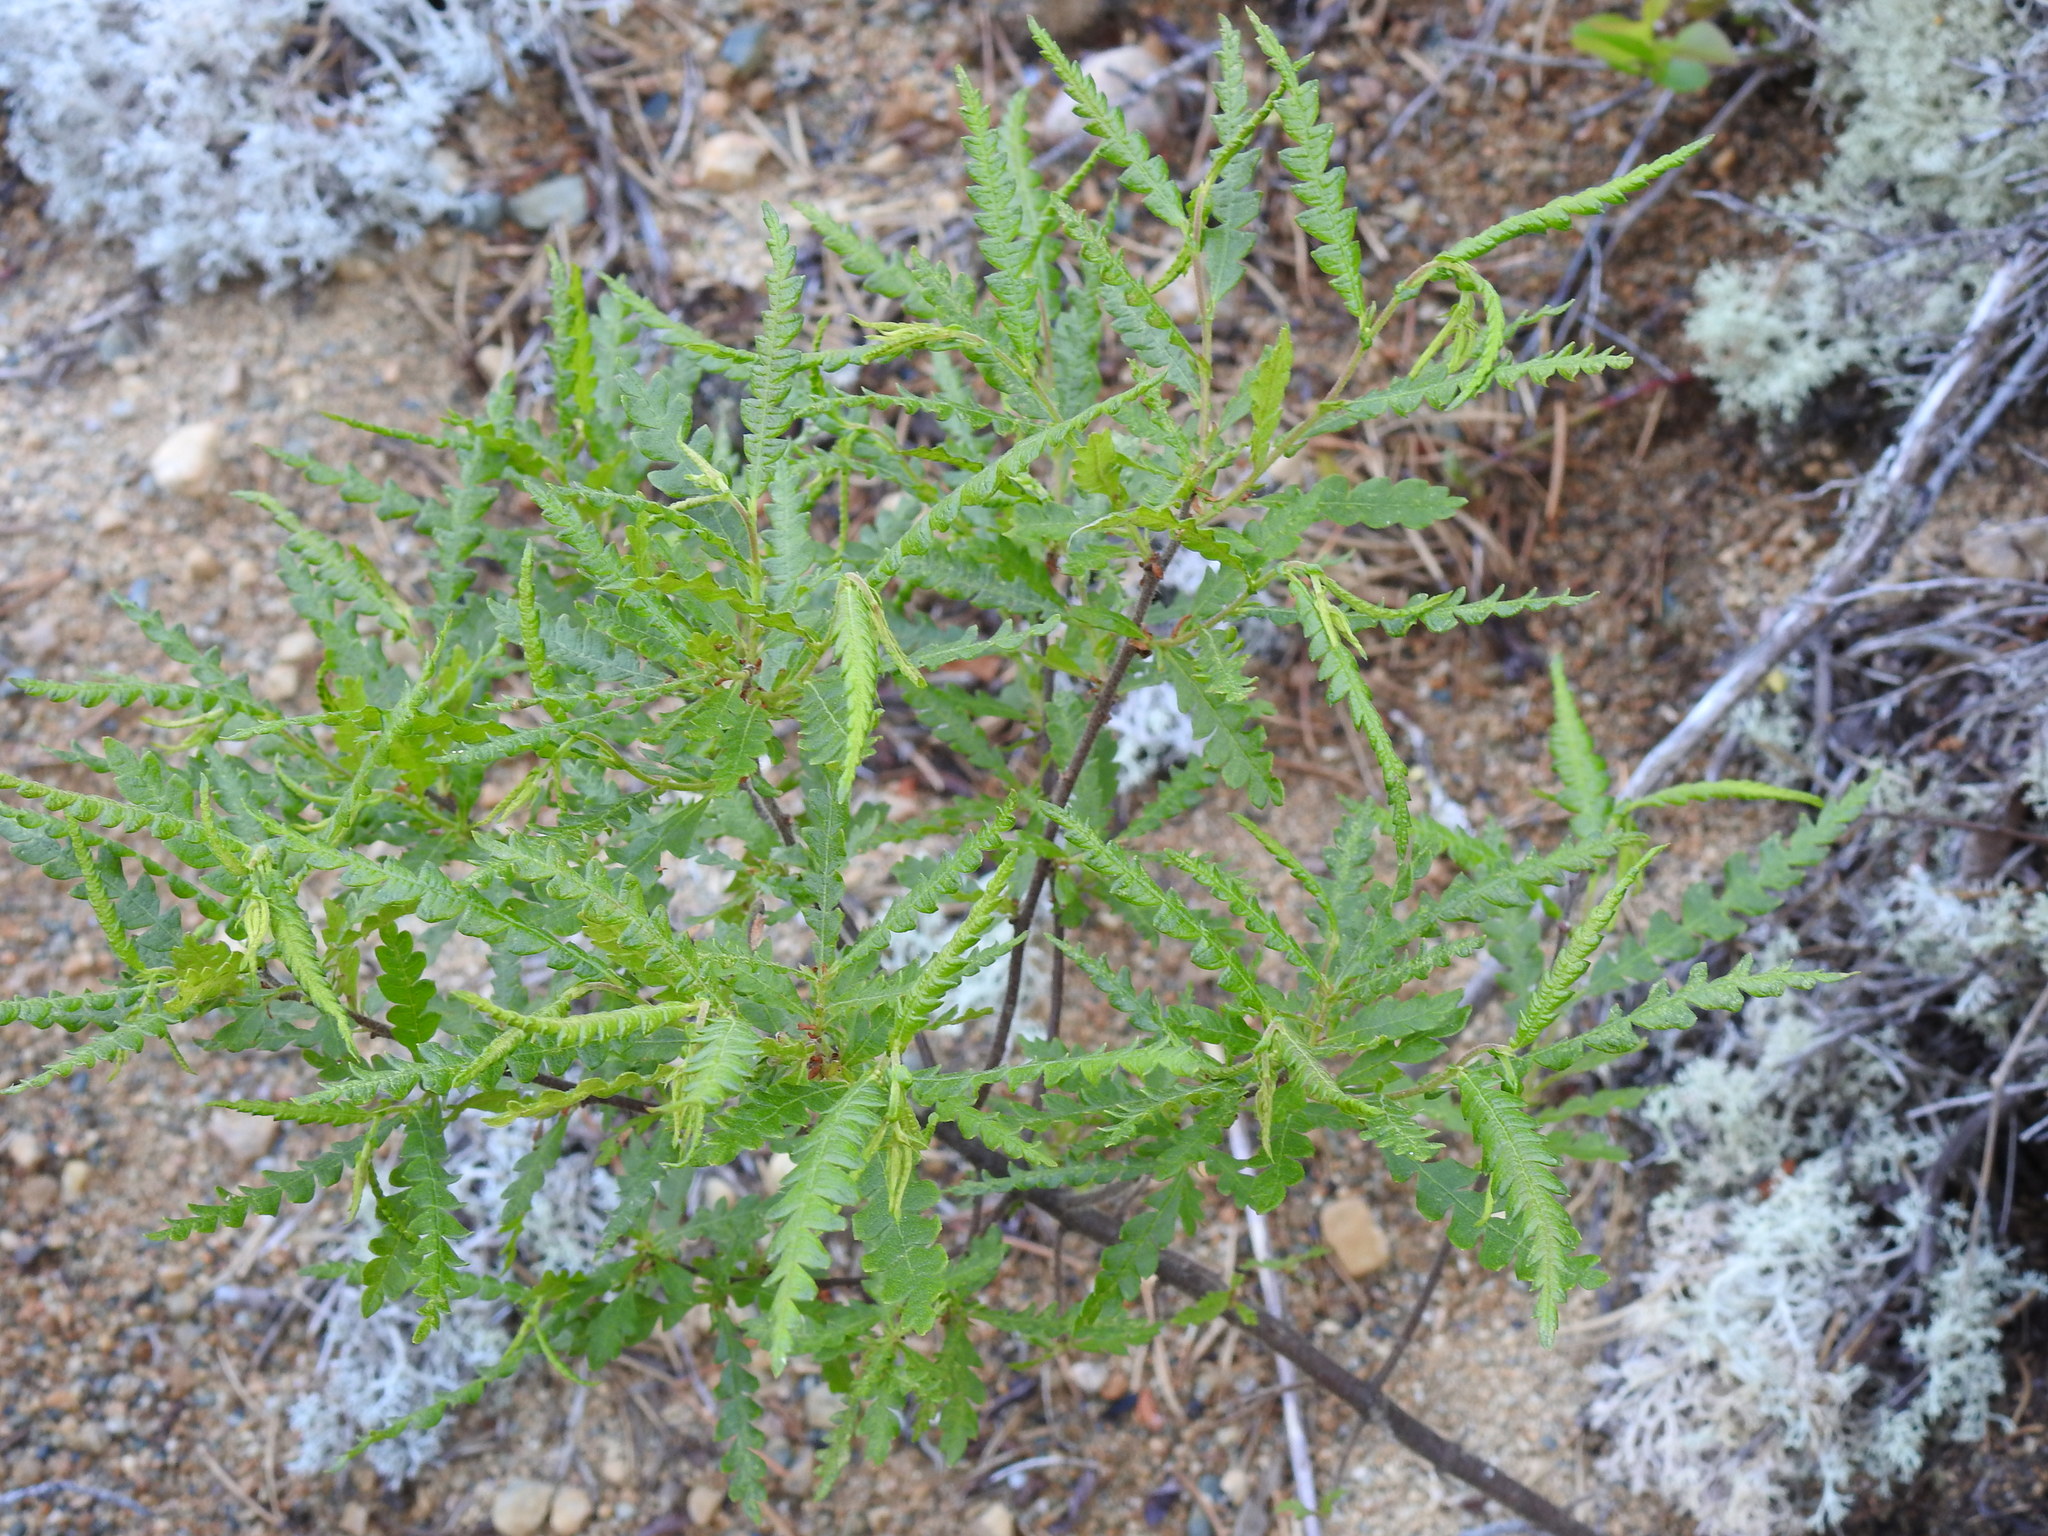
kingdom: Plantae
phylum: Tracheophyta
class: Magnoliopsida
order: Fagales
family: Myricaceae
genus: Comptonia
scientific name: Comptonia peregrina
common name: Sweet-fern
